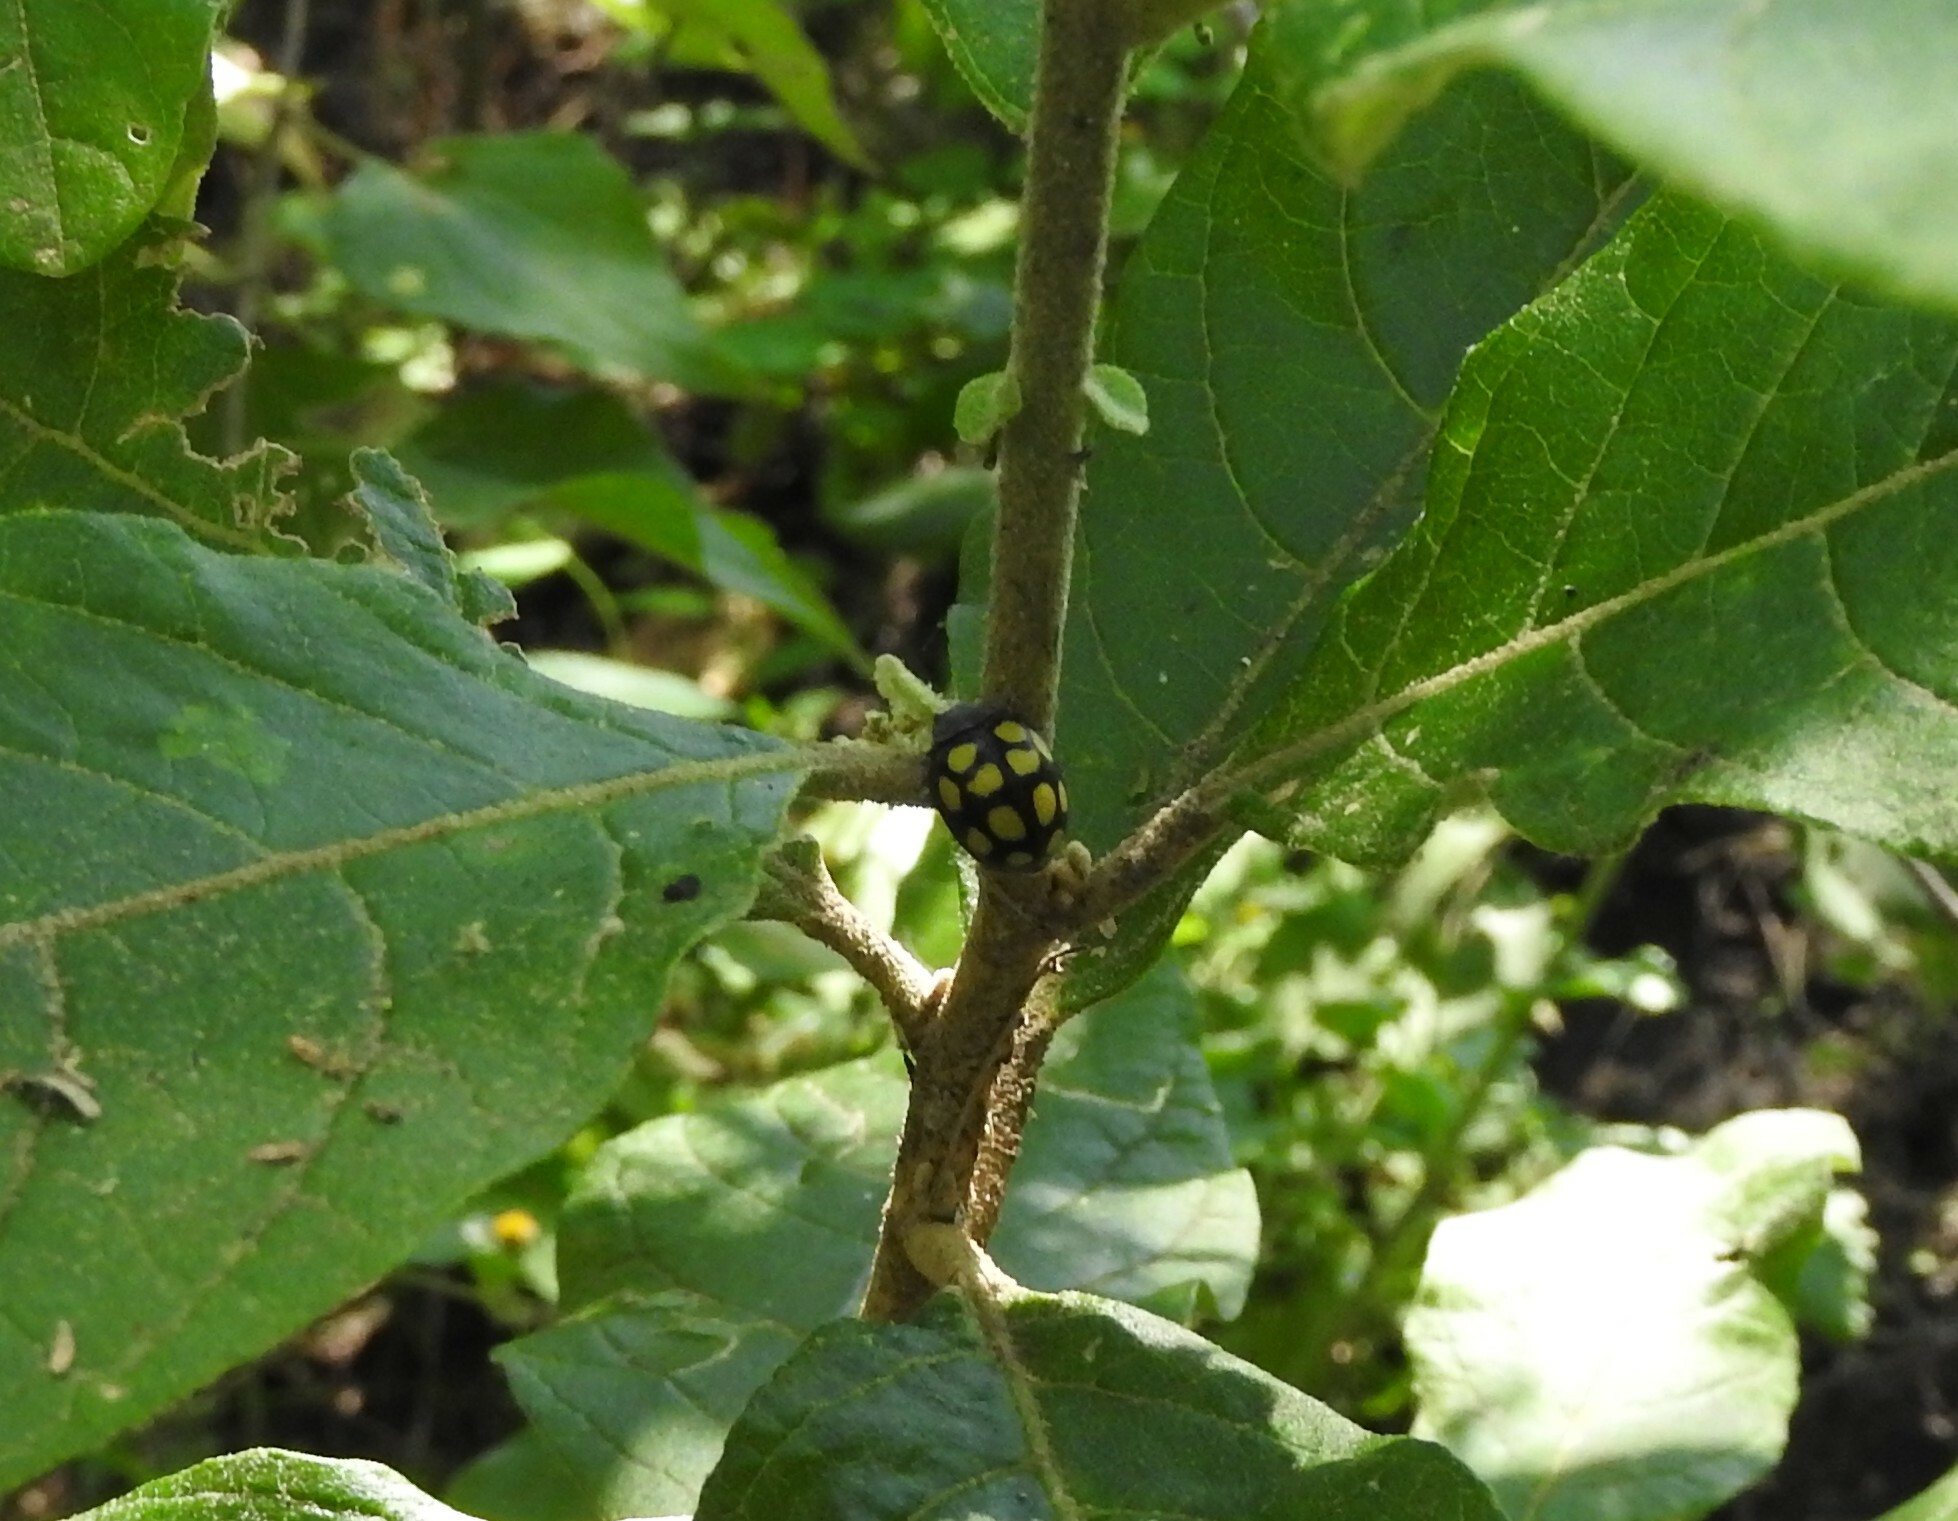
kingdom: Animalia
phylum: Arthropoda
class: Insecta
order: Coleoptera
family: Coccinellidae
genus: Epilachna
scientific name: Epilachna
